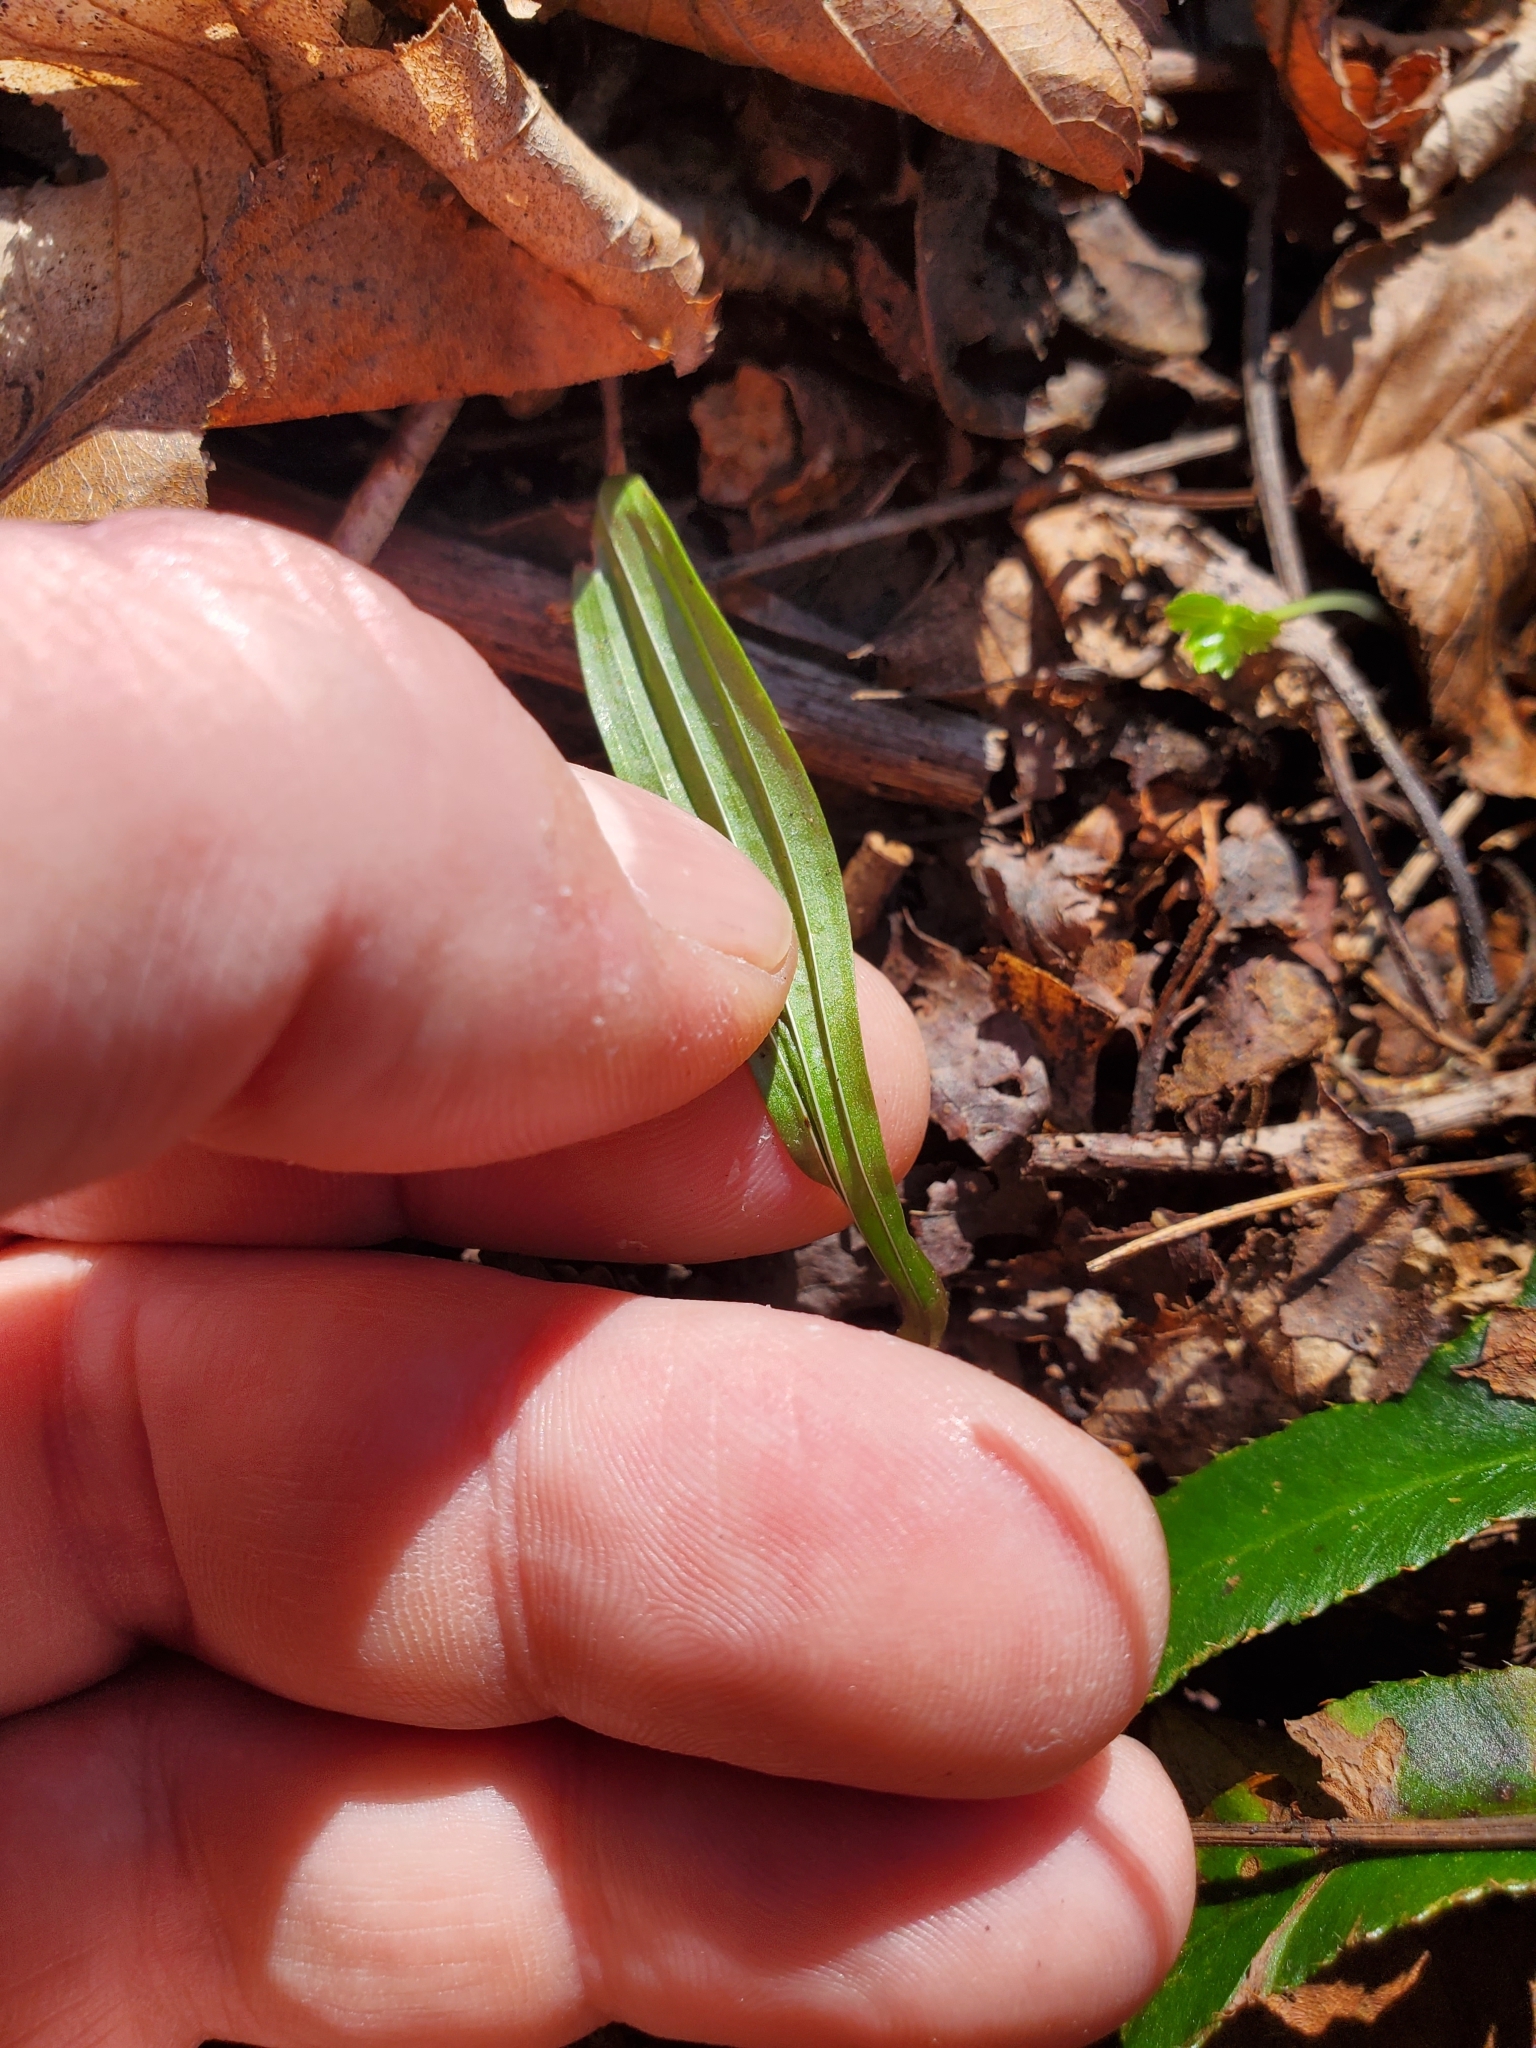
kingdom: Plantae
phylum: Tracheophyta
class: Liliopsida
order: Asparagales
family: Orchidaceae
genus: Aplectrum
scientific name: Aplectrum hyemale
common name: Adam-and-eve
